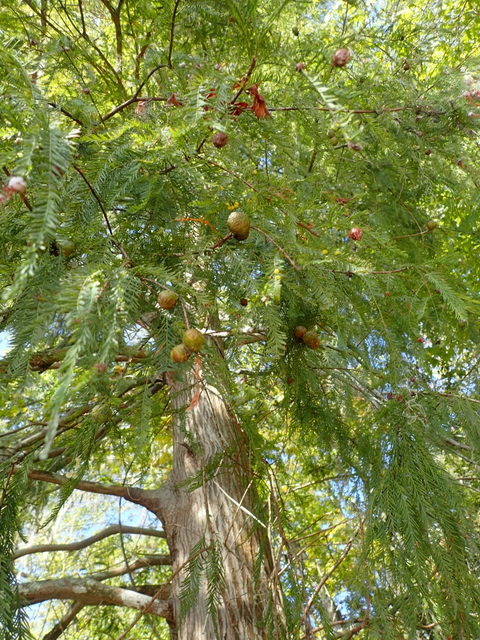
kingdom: Plantae
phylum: Tracheophyta
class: Pinopsida
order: Pinales
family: Cupressaceae
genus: Taxodium
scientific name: Taxodium distichum
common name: Bald cypress
